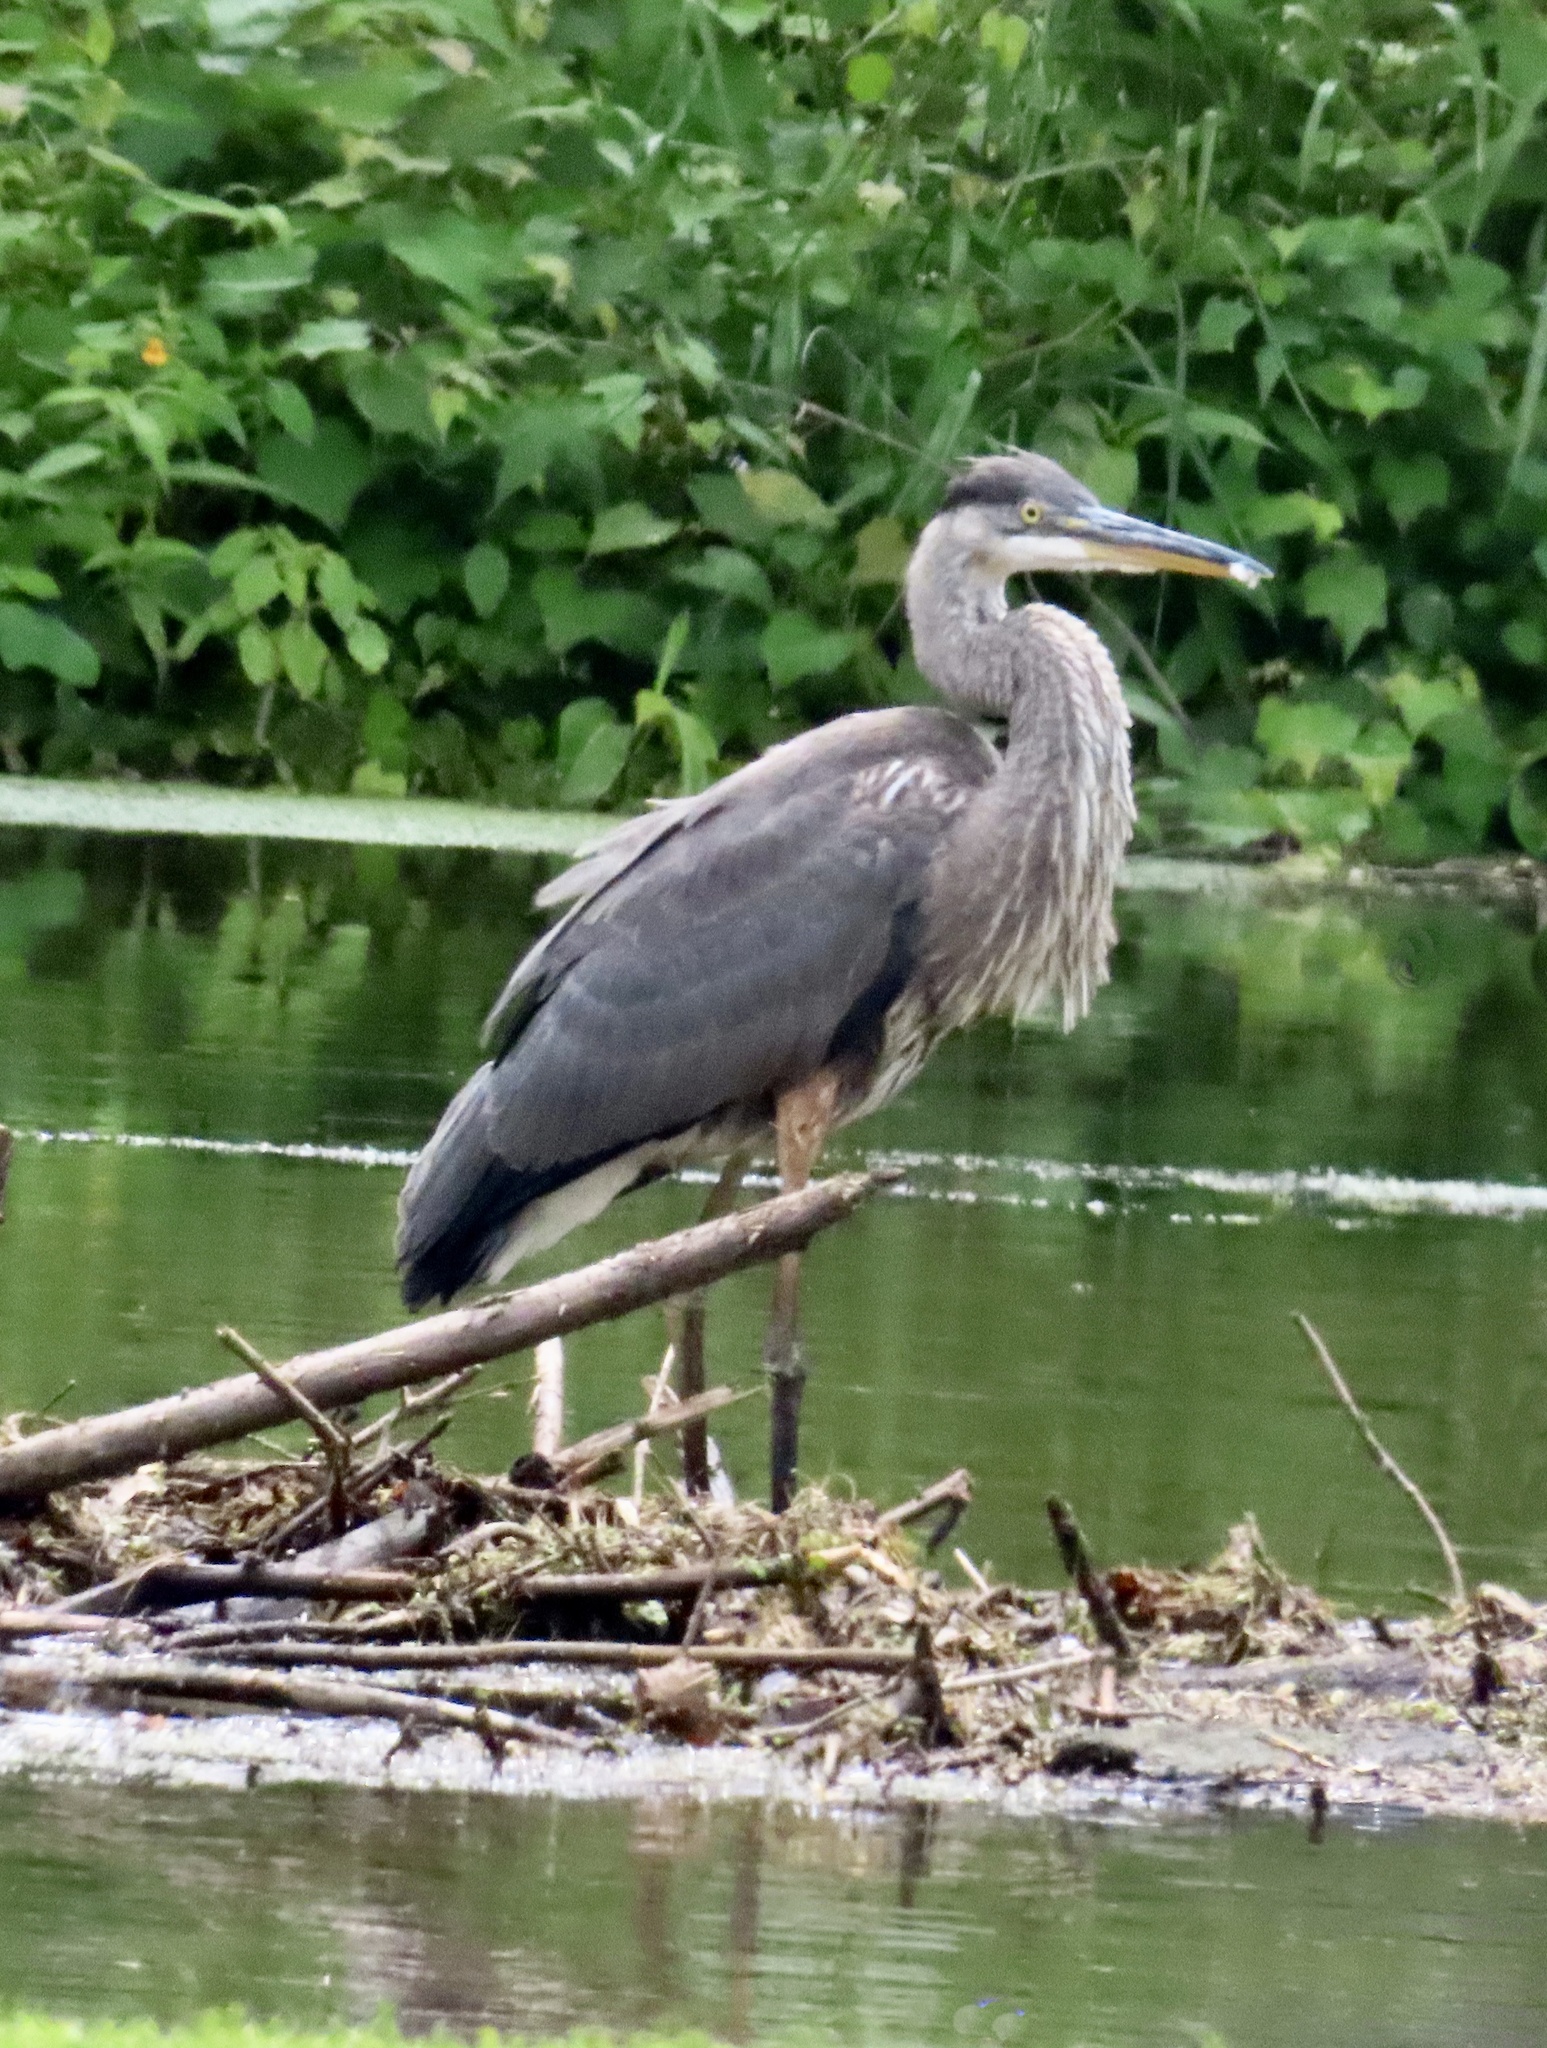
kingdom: Animalia
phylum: Chordata
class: Aves
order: Pelecaniformes
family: Ardeidae
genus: Ardea
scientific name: Ardea herodias
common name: Great blue heron
